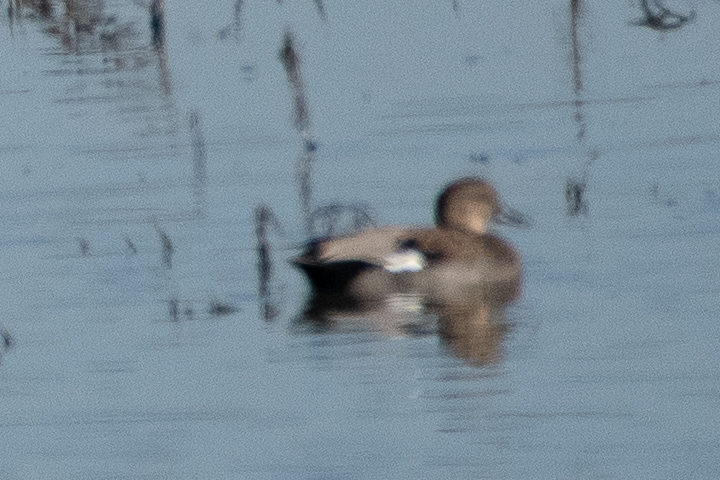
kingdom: Animalia
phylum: Chordata
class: Aves
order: Anseriformes
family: Anatidae
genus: Mareca
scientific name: Mareca strepera
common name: Gadwall
